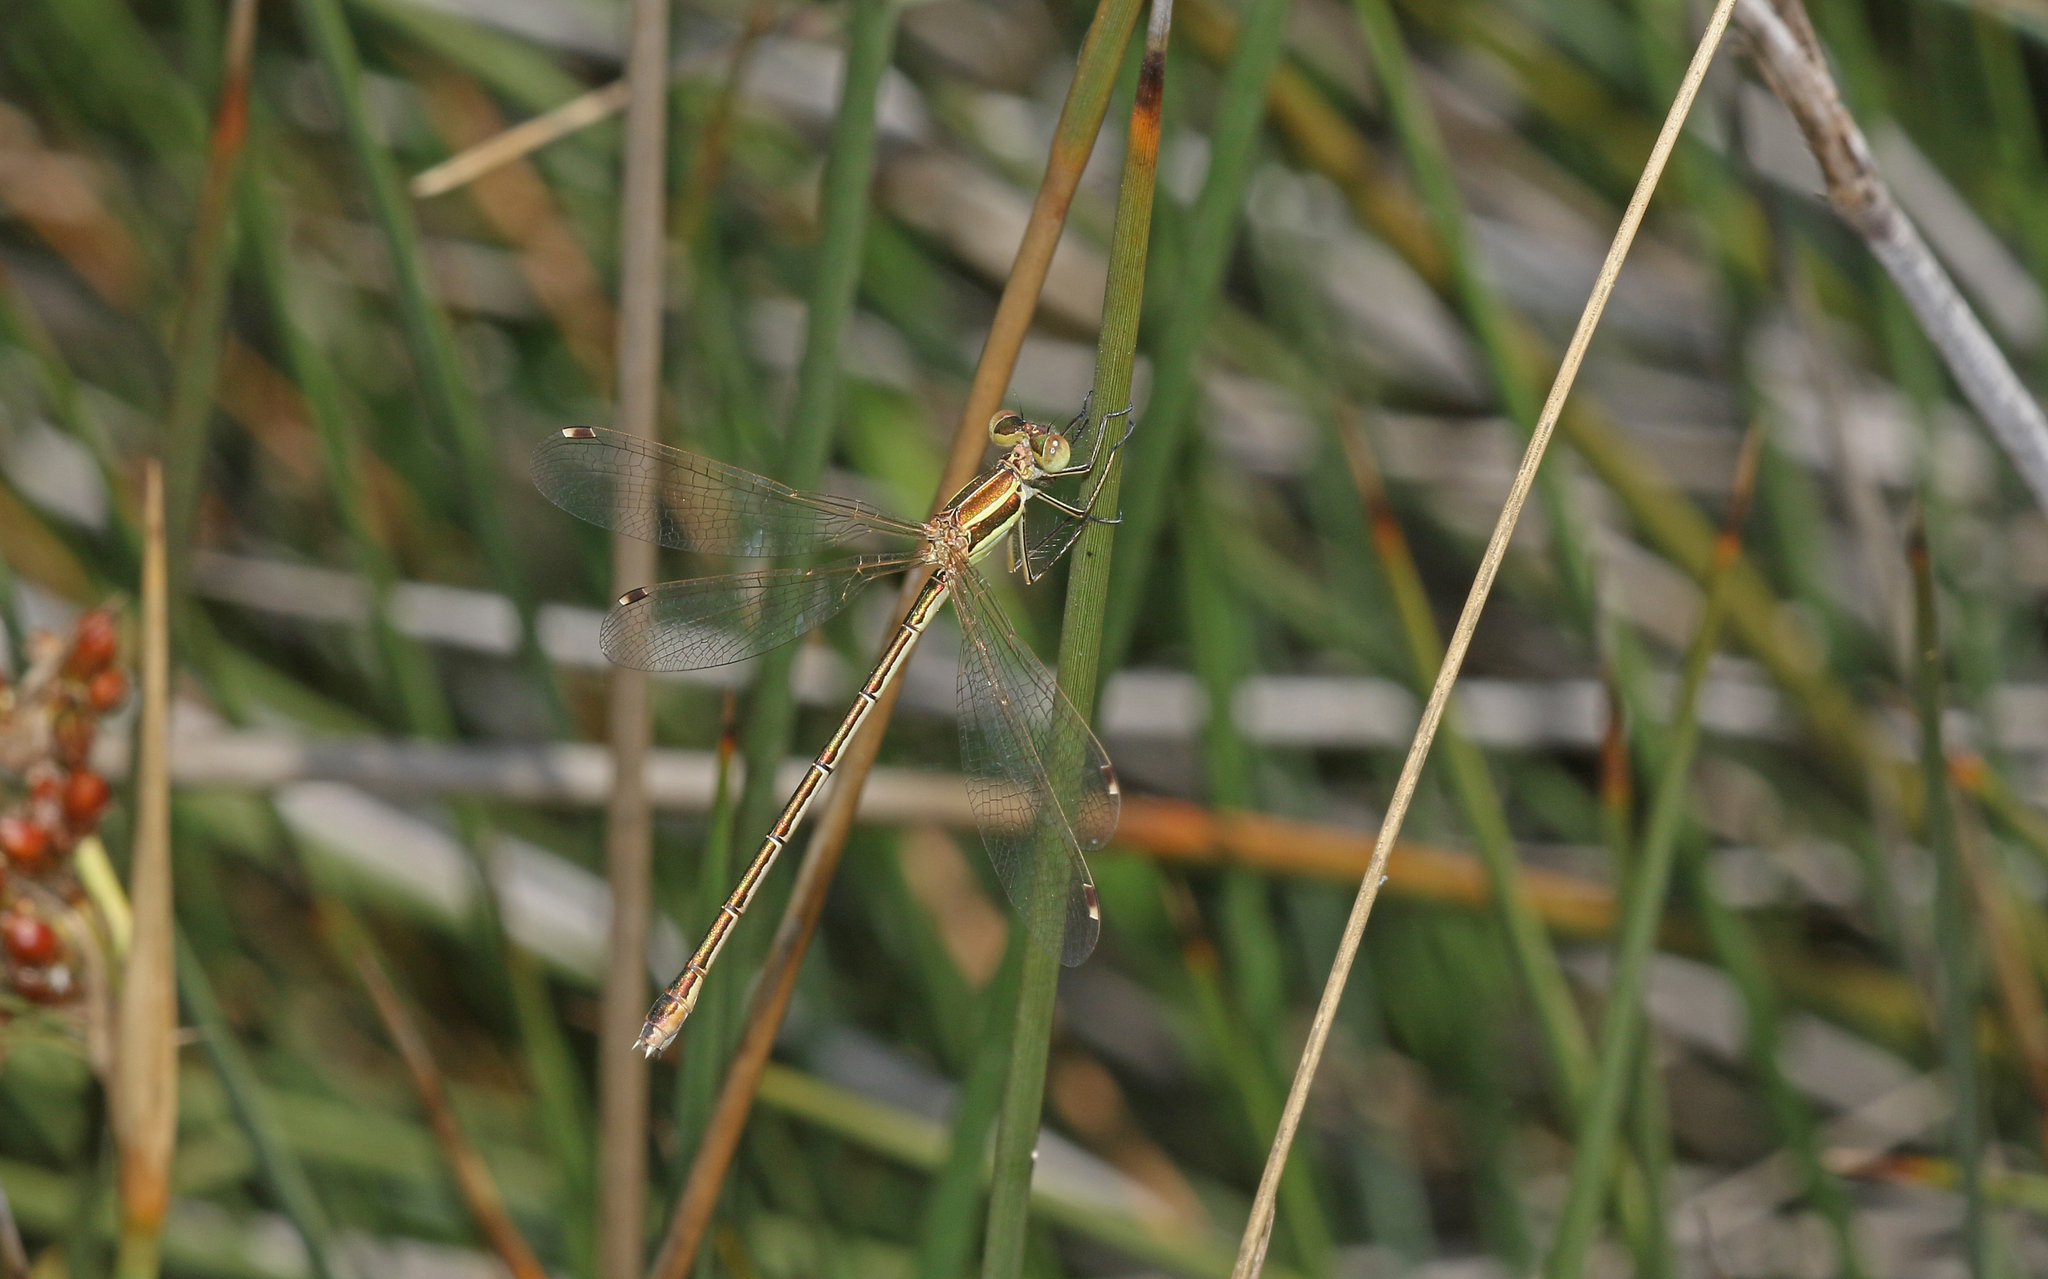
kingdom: Animalia
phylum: Arthropoda
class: Insecta
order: Odonata
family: Lestidae
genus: Lestes
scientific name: Lestes barbarus
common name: Migrant spreadwing
